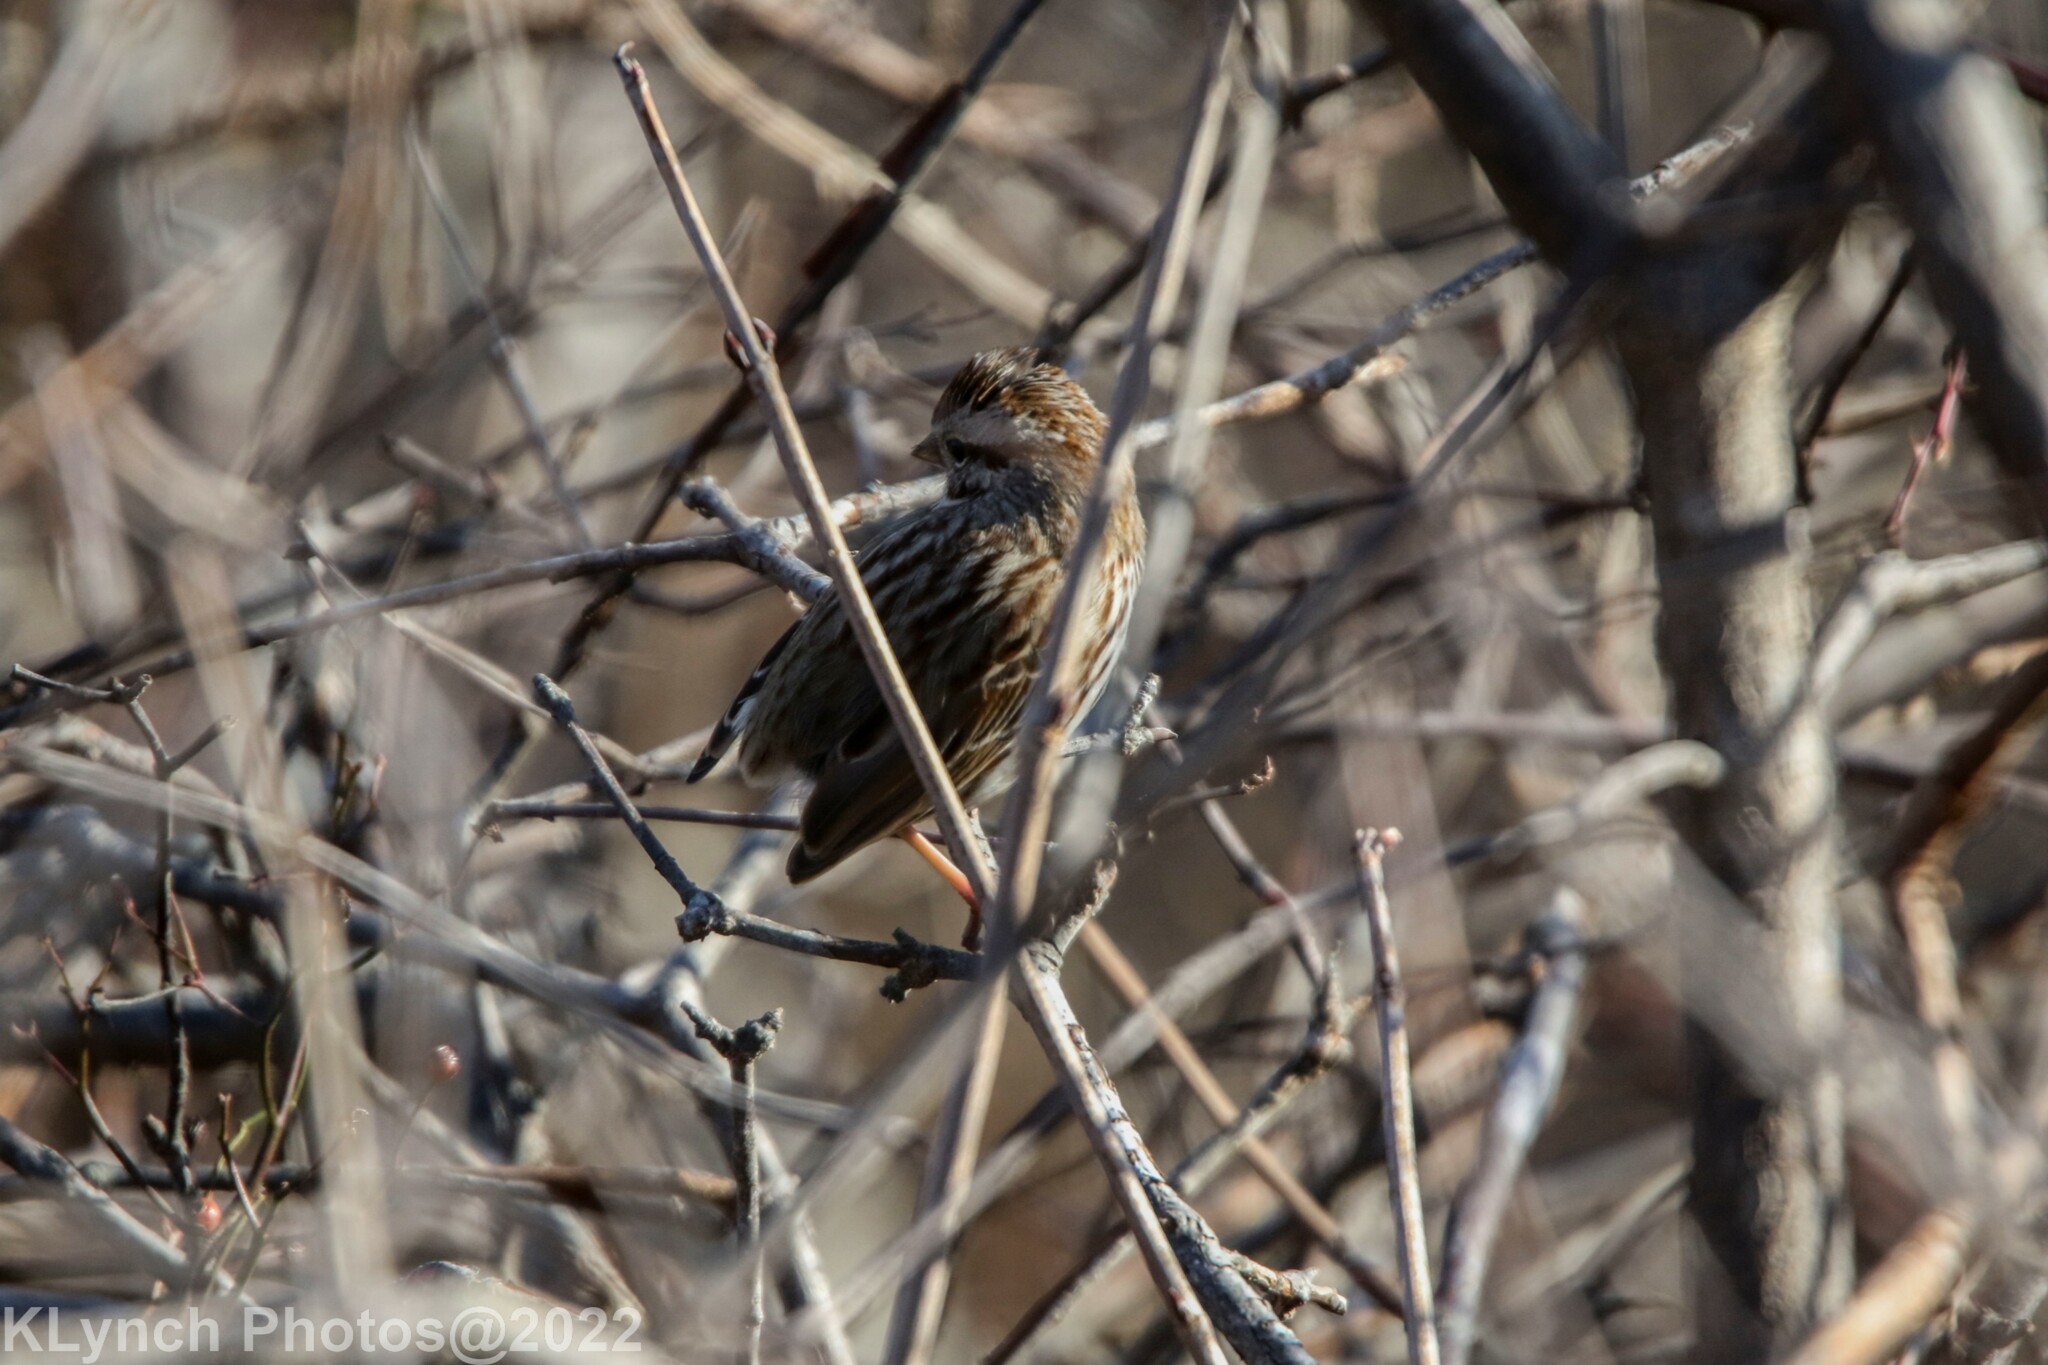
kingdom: Animalia
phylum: Chordata
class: Aves
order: Passeriformes
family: Passerellidae
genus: Melospiza
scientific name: Melospiza melodia
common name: Song sparrow
